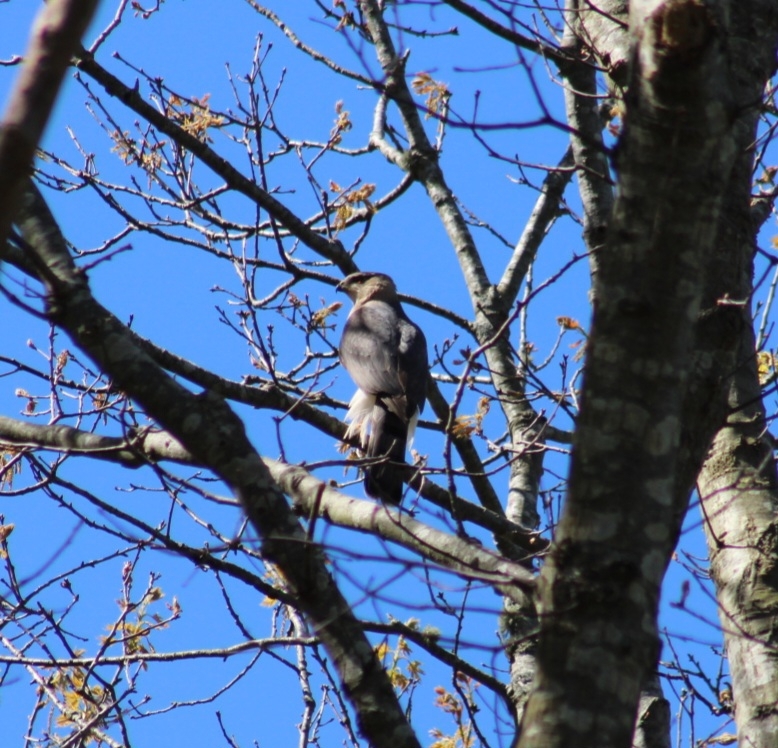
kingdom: Animalia
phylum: Chordata
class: Aves
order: Accipitriformes
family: Accipitridae
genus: Accipiter
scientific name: Accipiter cooperii
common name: Cooper's hawk
